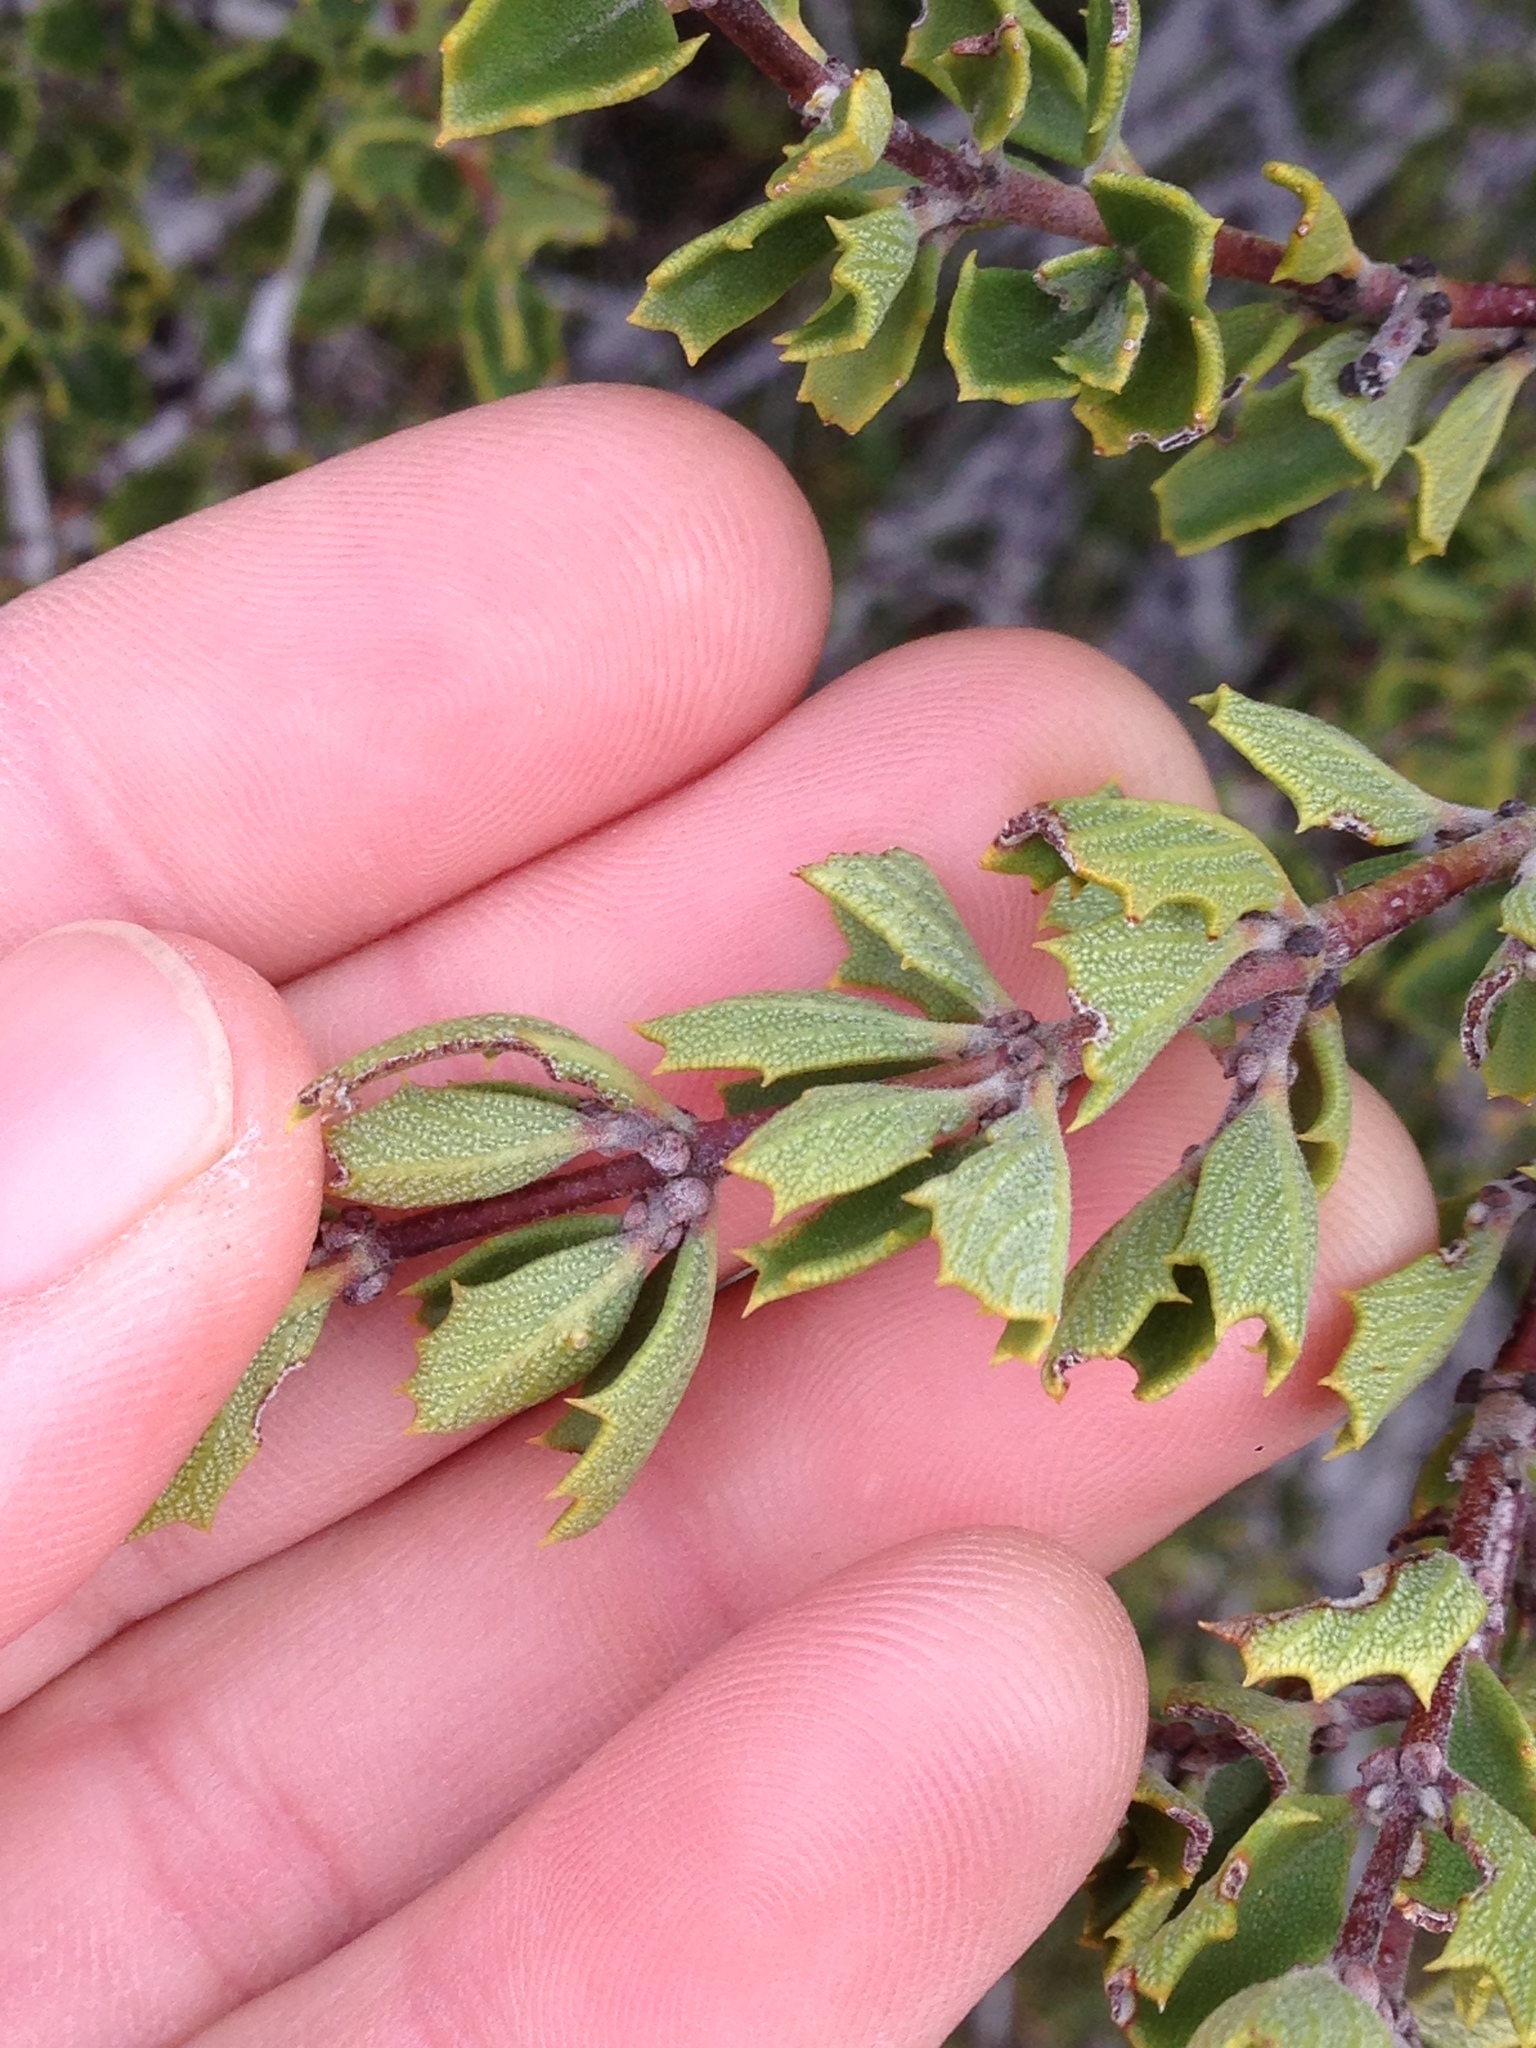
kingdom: Plantae
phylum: Tracheophyta
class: Magnoliopsida
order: Rosales
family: Rhamnaceae
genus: Ceanothus
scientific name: Ceanothus perplexans
